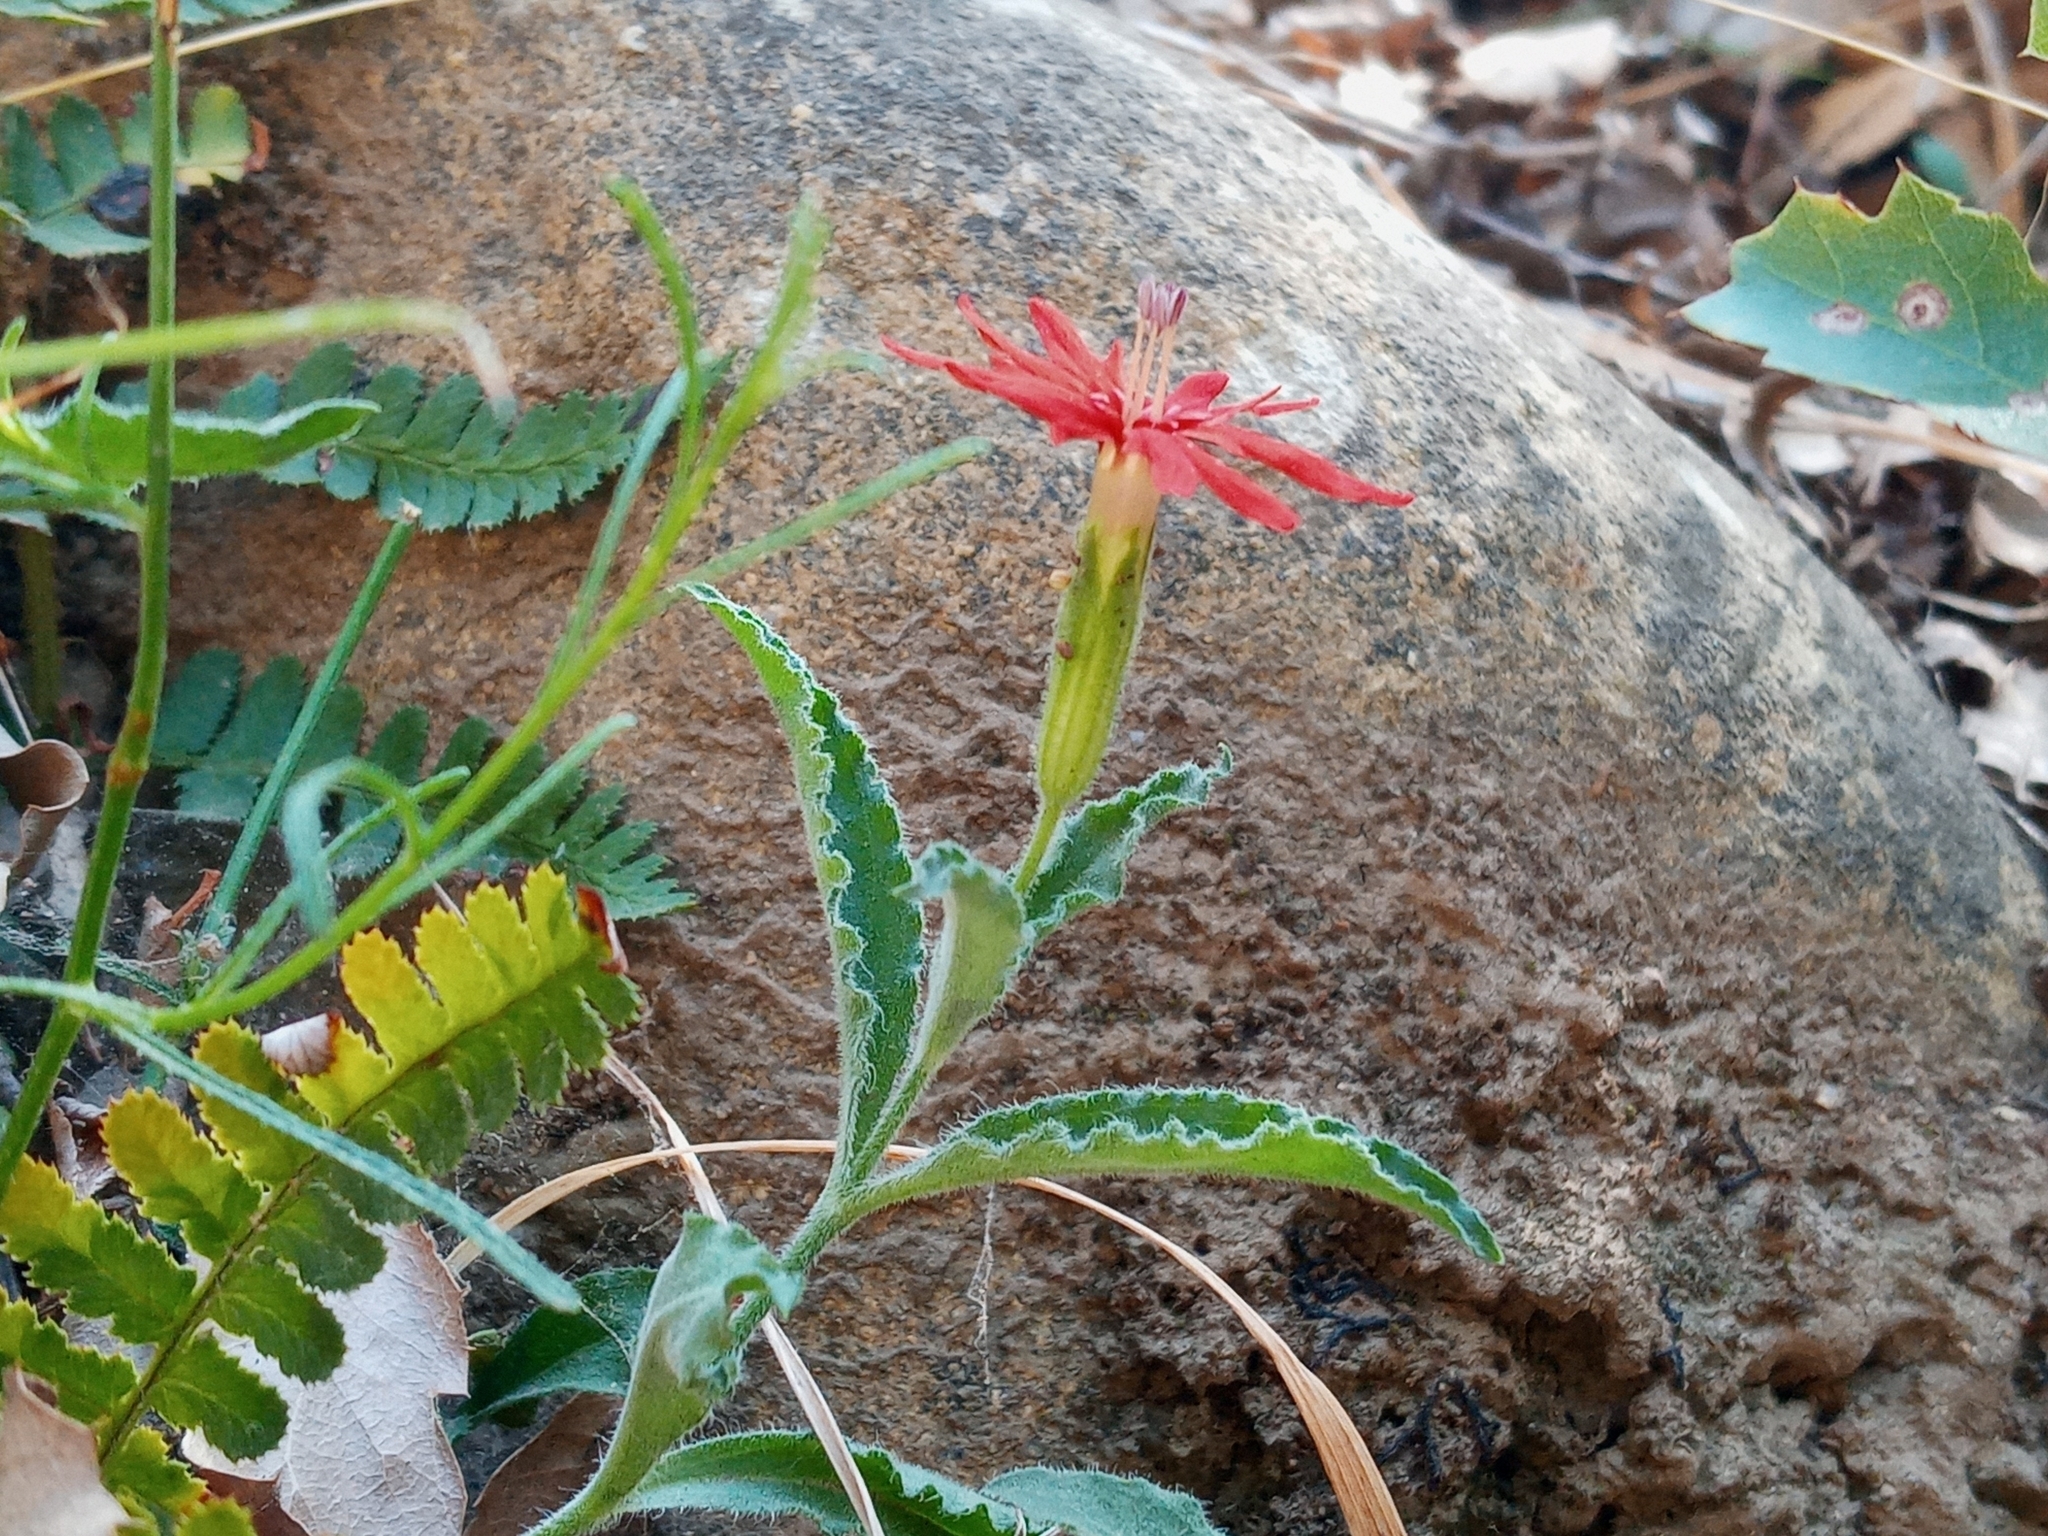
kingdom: Plantae
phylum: Tracheophyta
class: Magnoliopsida
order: Caryophyllales
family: Caryophyllaceae
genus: Silene
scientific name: Silene laciniata
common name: Indian-pink
